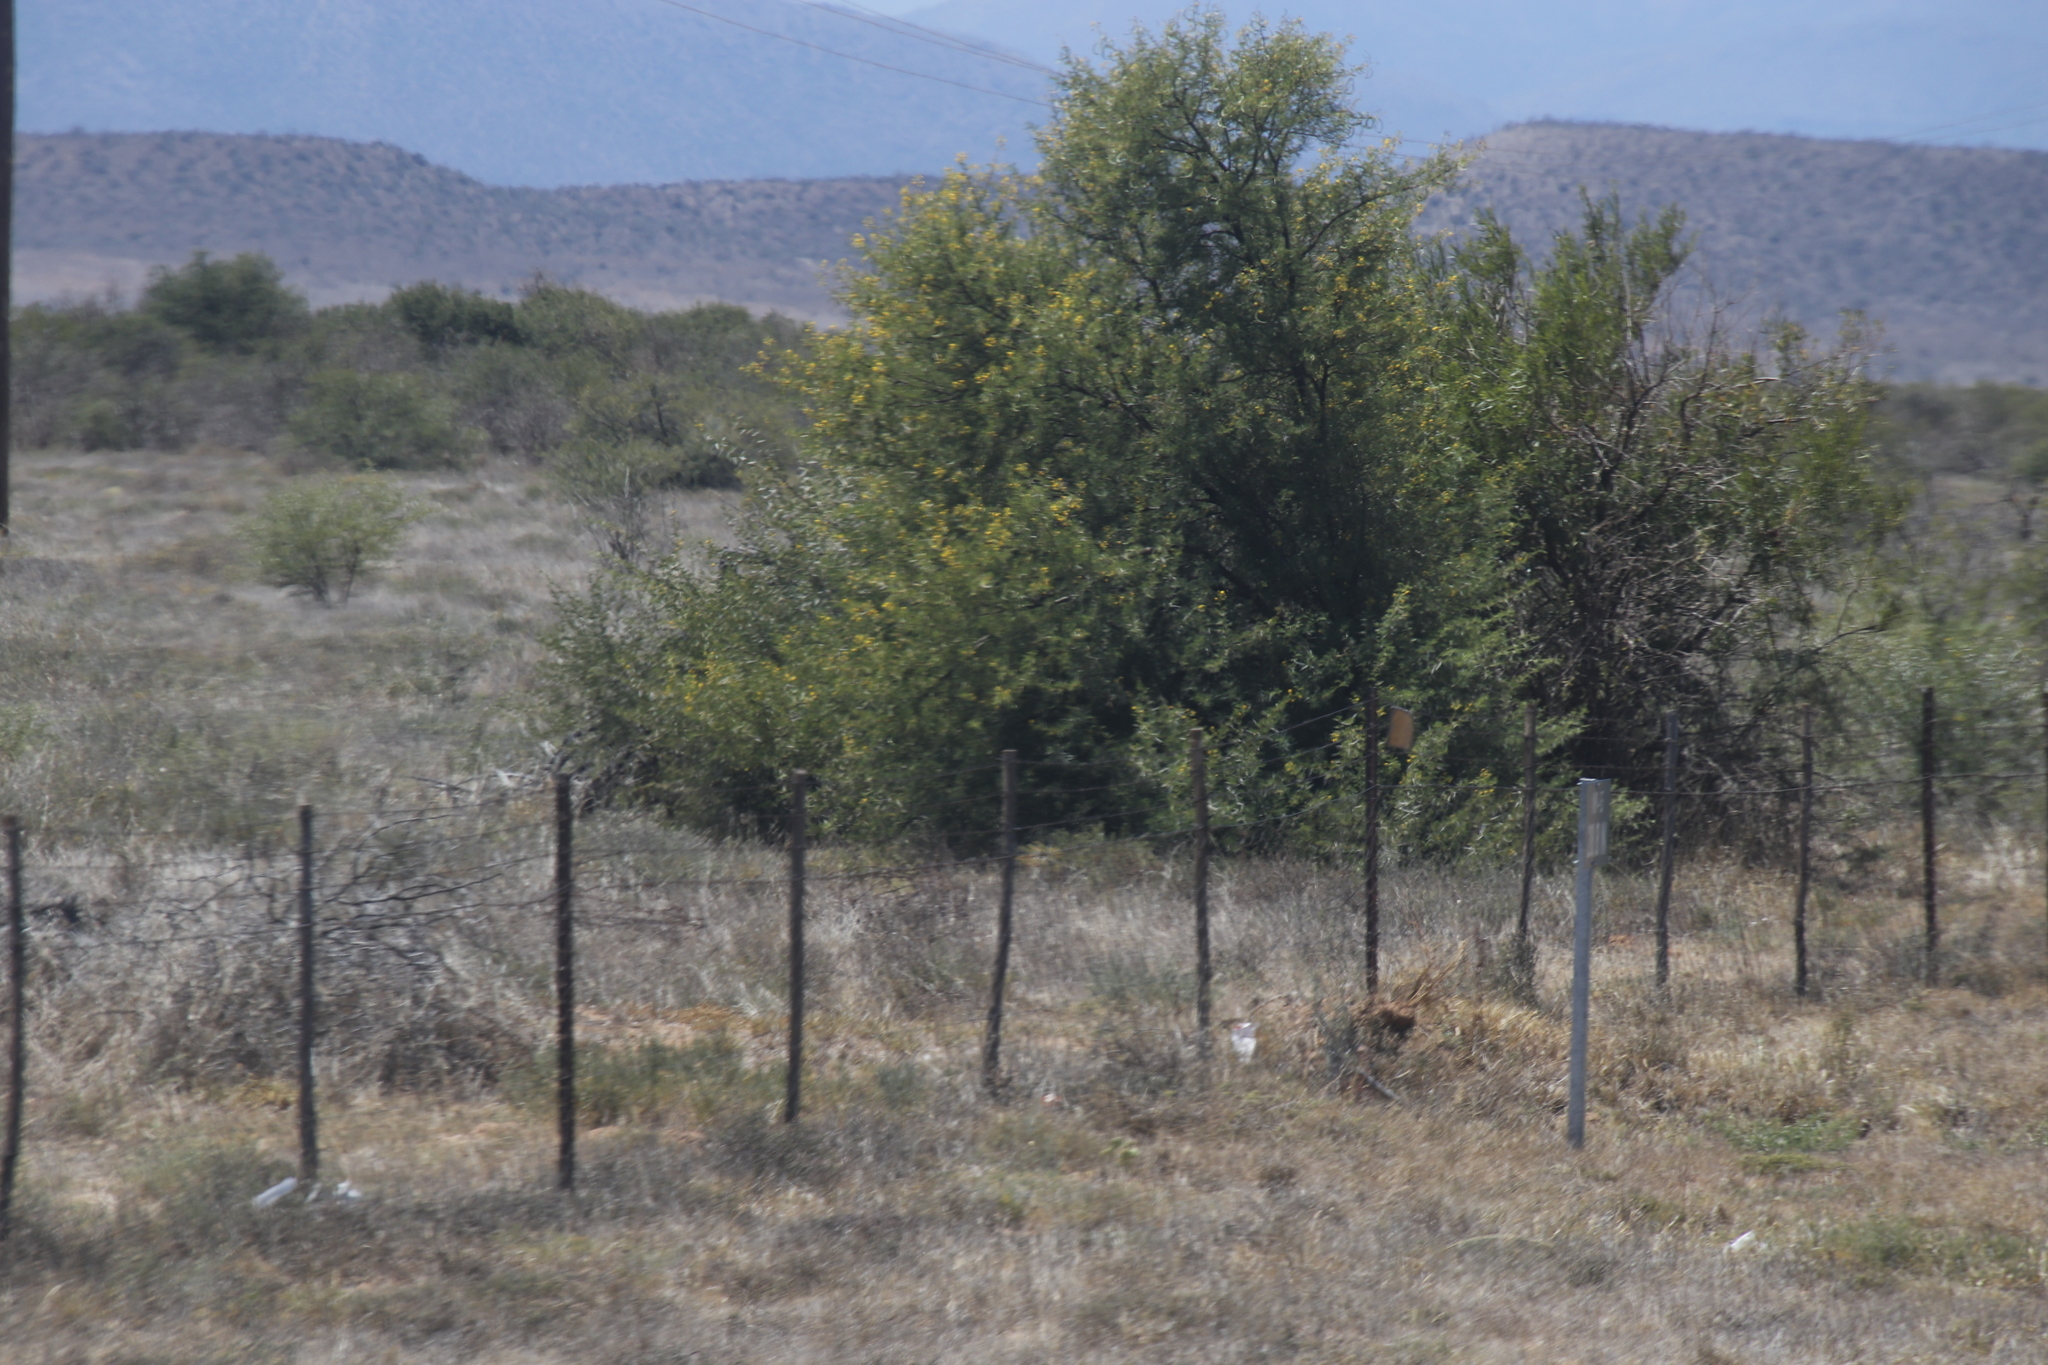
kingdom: Plantae
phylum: Tracheophyta
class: Magnoliopsida
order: Fabales
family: Fabaceae
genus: Vachellia
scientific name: Vachellia karroo
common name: Sweet thorn
